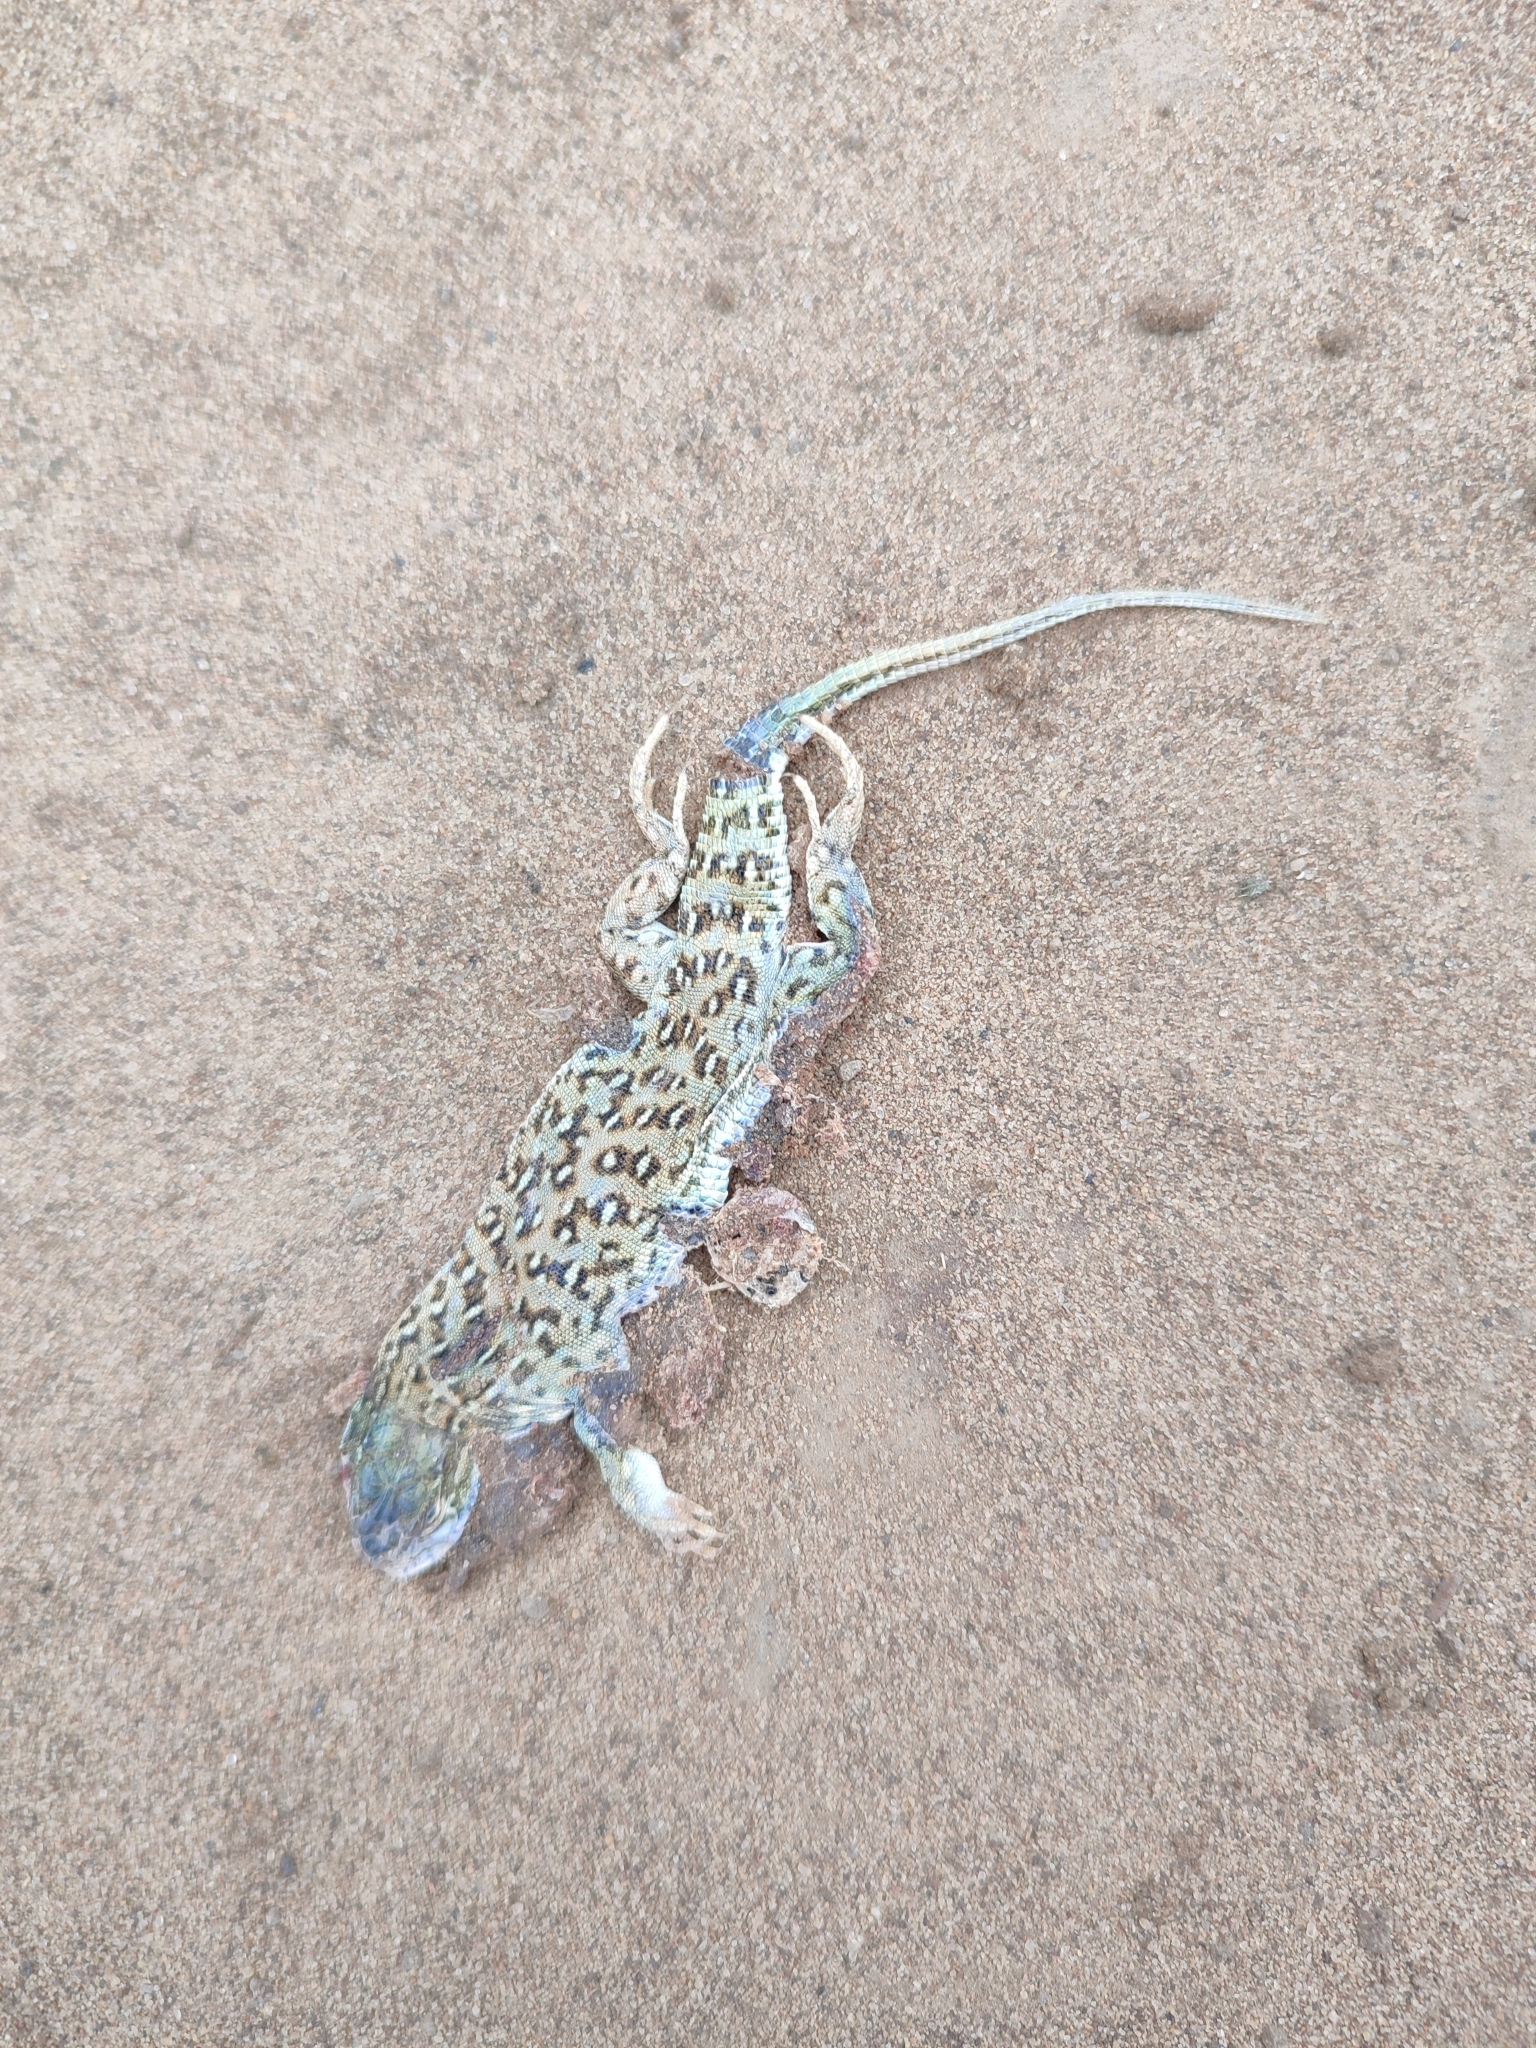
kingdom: Animalia
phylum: Chordata
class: Squamata
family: Lacertidae
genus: Eremias
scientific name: Eremias arguta
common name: Racerunner
